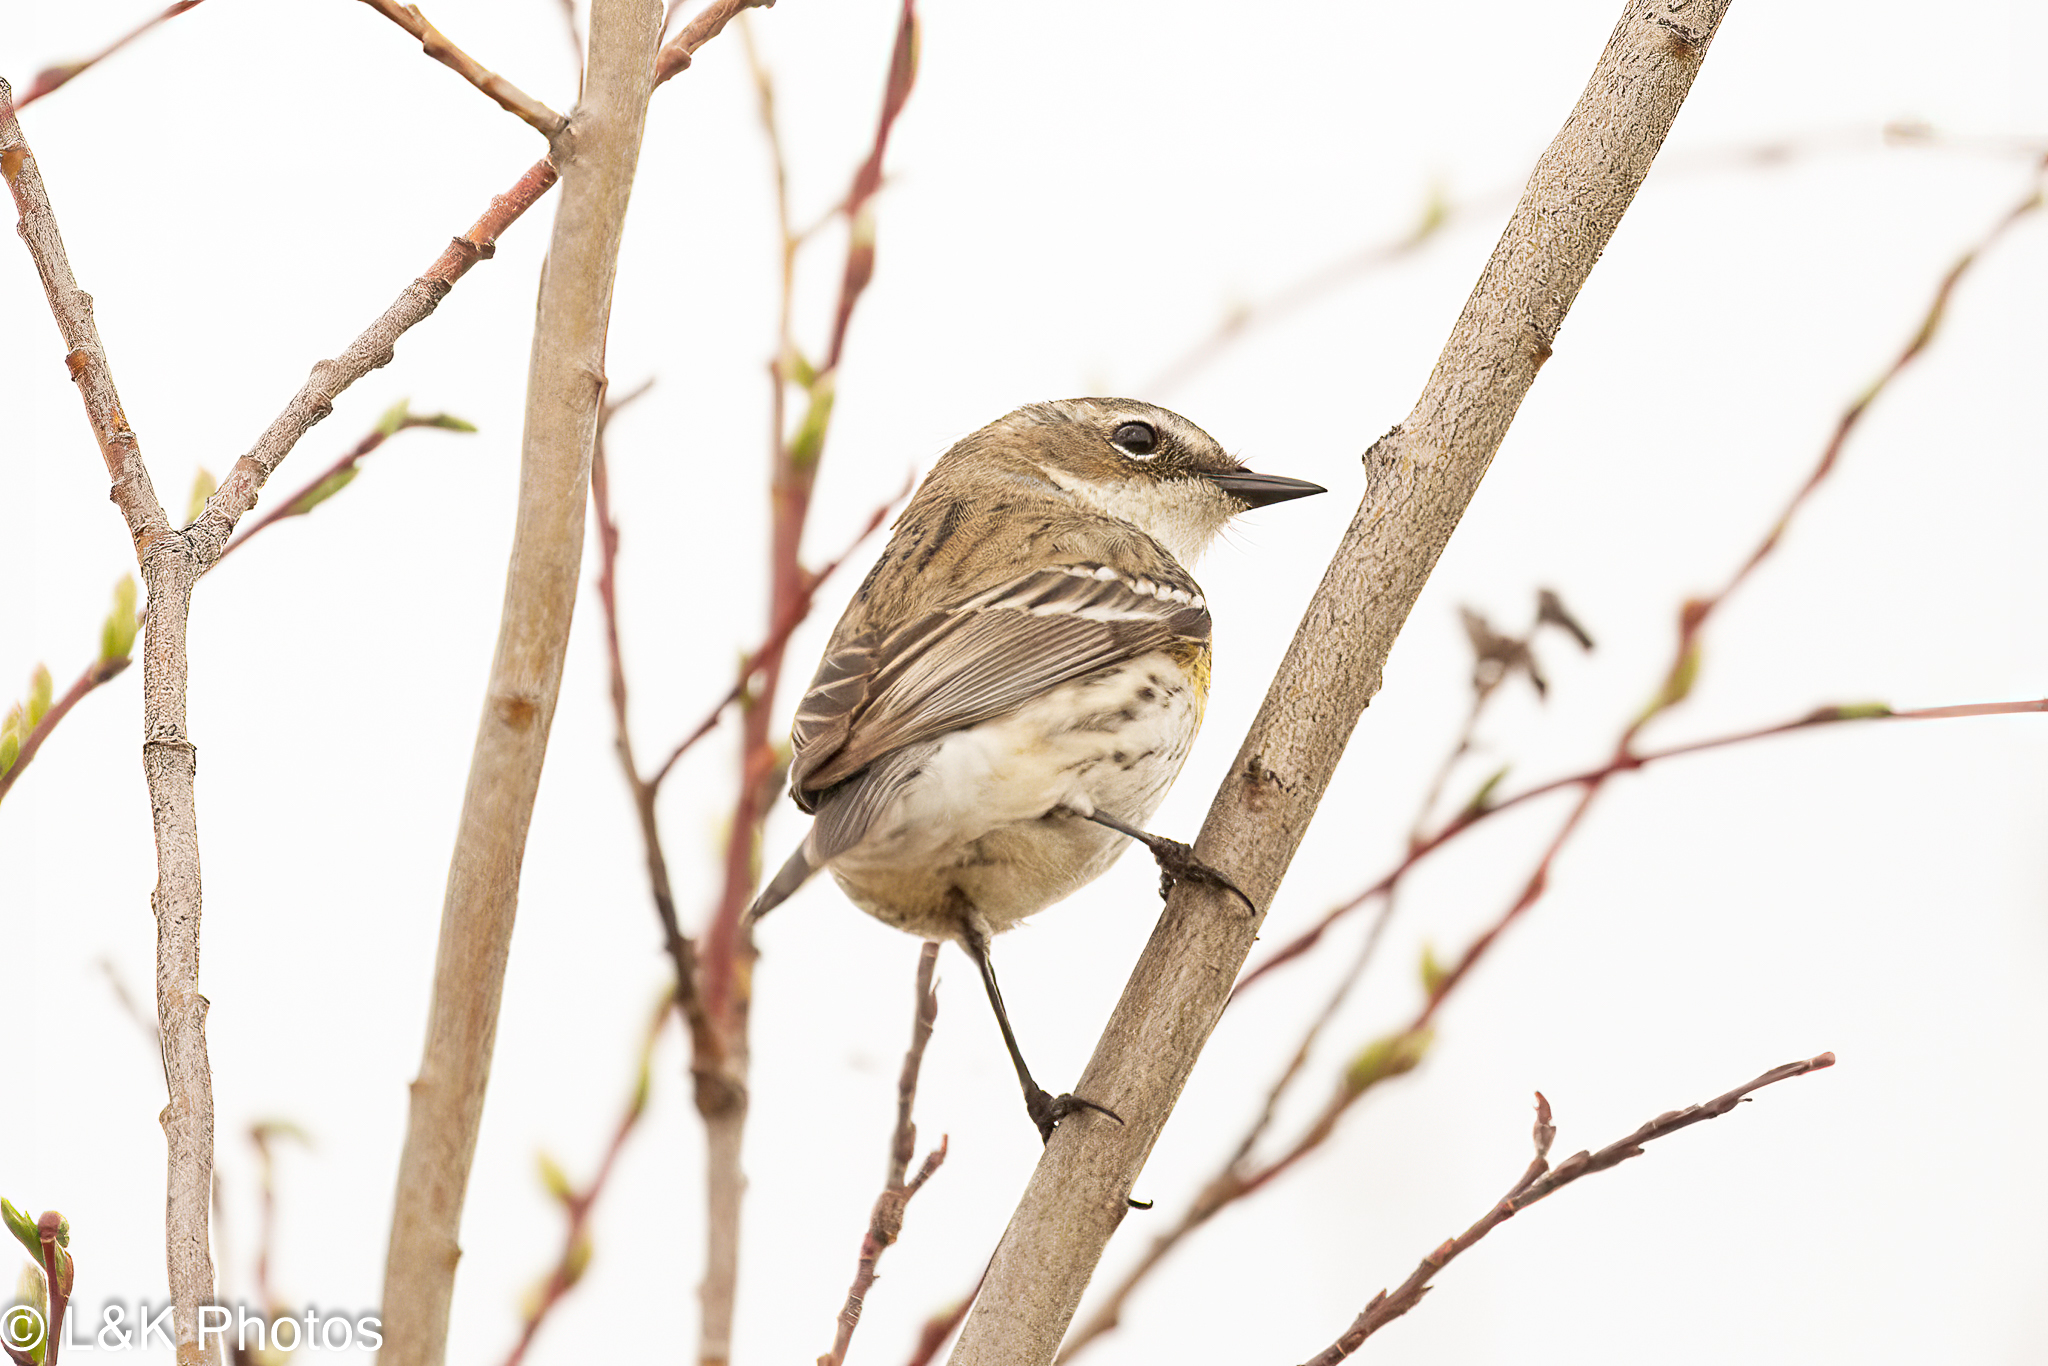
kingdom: Animalia
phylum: Chordata
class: Aves
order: Passeriformes
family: Parulidae
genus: Setophaga
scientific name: Setophaga coronata
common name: Myrtle warbler
